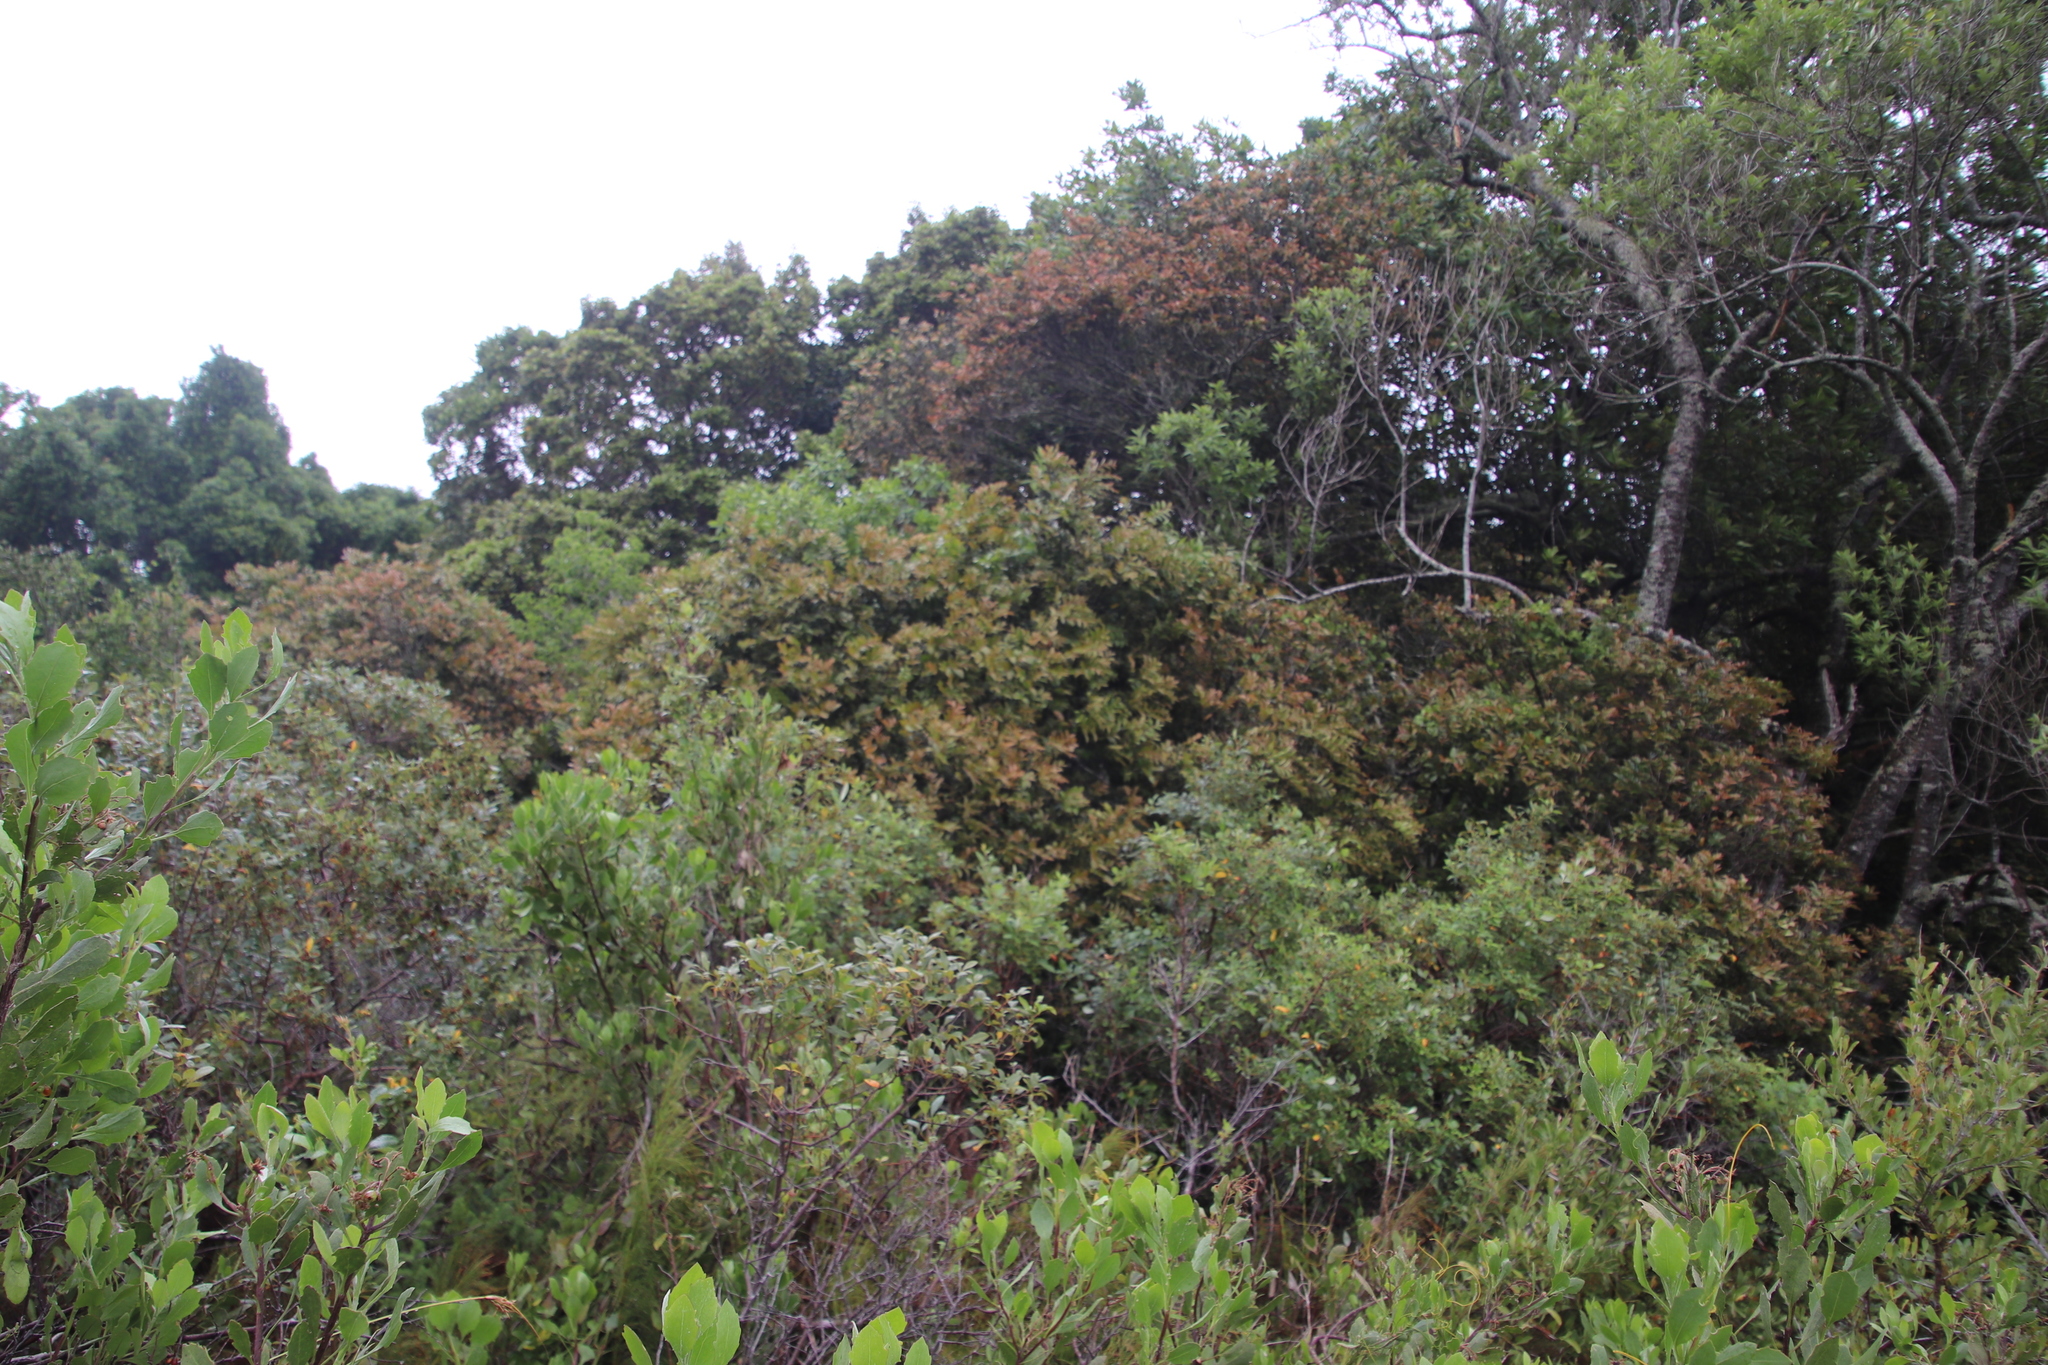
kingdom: Plantae
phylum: Tracheophyta
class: Magnoliopsida
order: Ericales
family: Ebenaceae
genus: Diospyros
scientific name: Diospyros whyteana
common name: Bladder-nut
